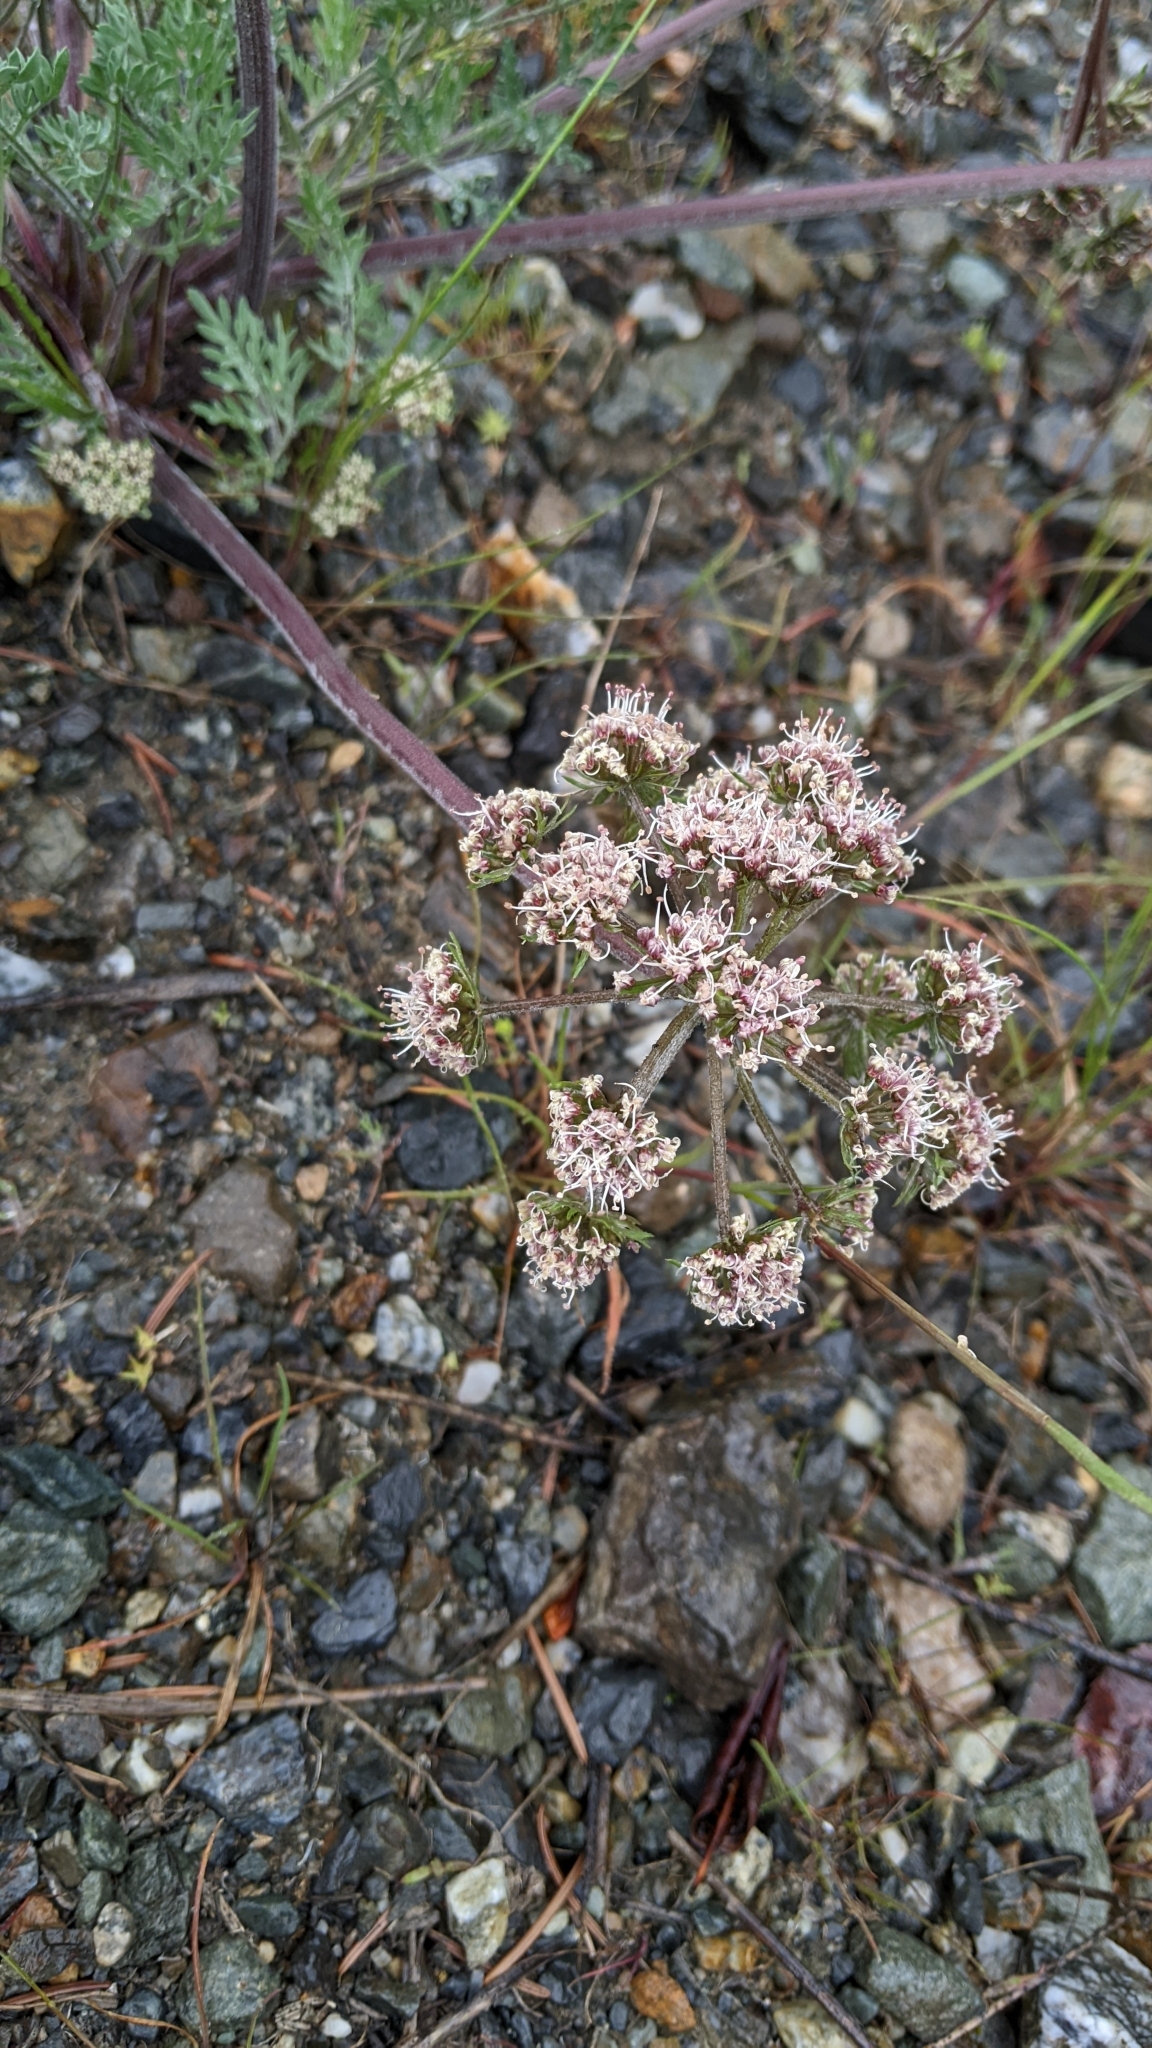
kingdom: Plantae
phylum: Tracheophyta
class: Magnoliopsida
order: Apiales
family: Apiaceae
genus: Lomatium
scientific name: Lomatium macrocarpum
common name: Big-seed biscuitroot
